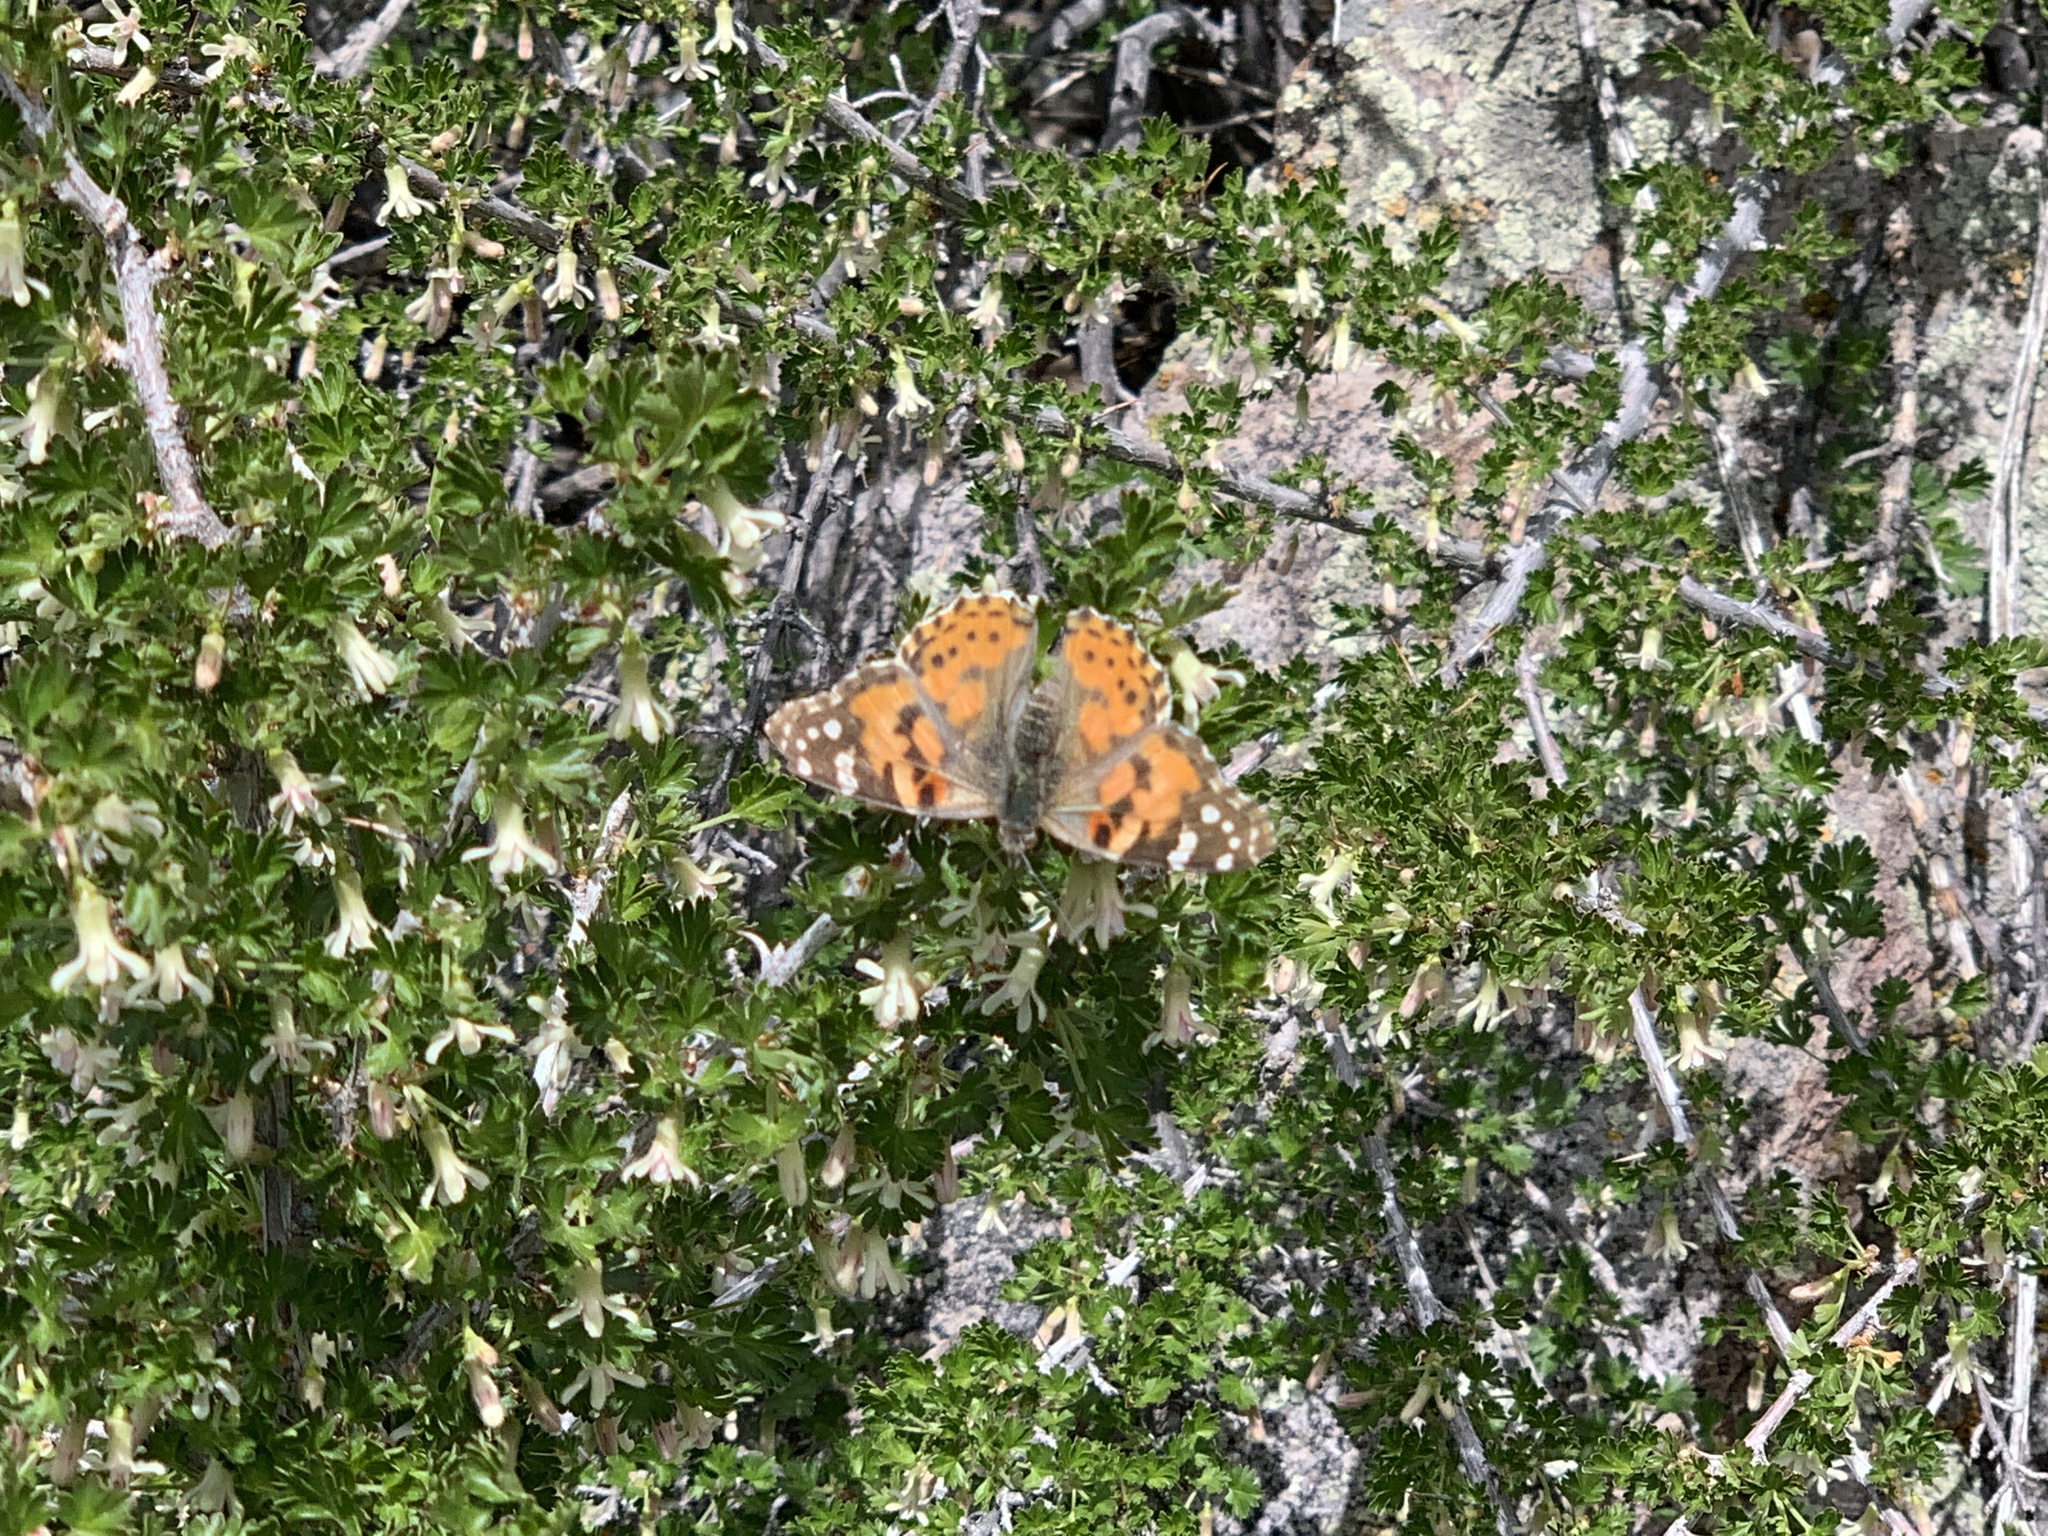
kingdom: Animalia
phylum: Arthropoda
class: Insecta
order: Lepidoptera
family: Nymphalidae
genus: Vanessa
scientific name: Vanessa cardui
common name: Painted lady
